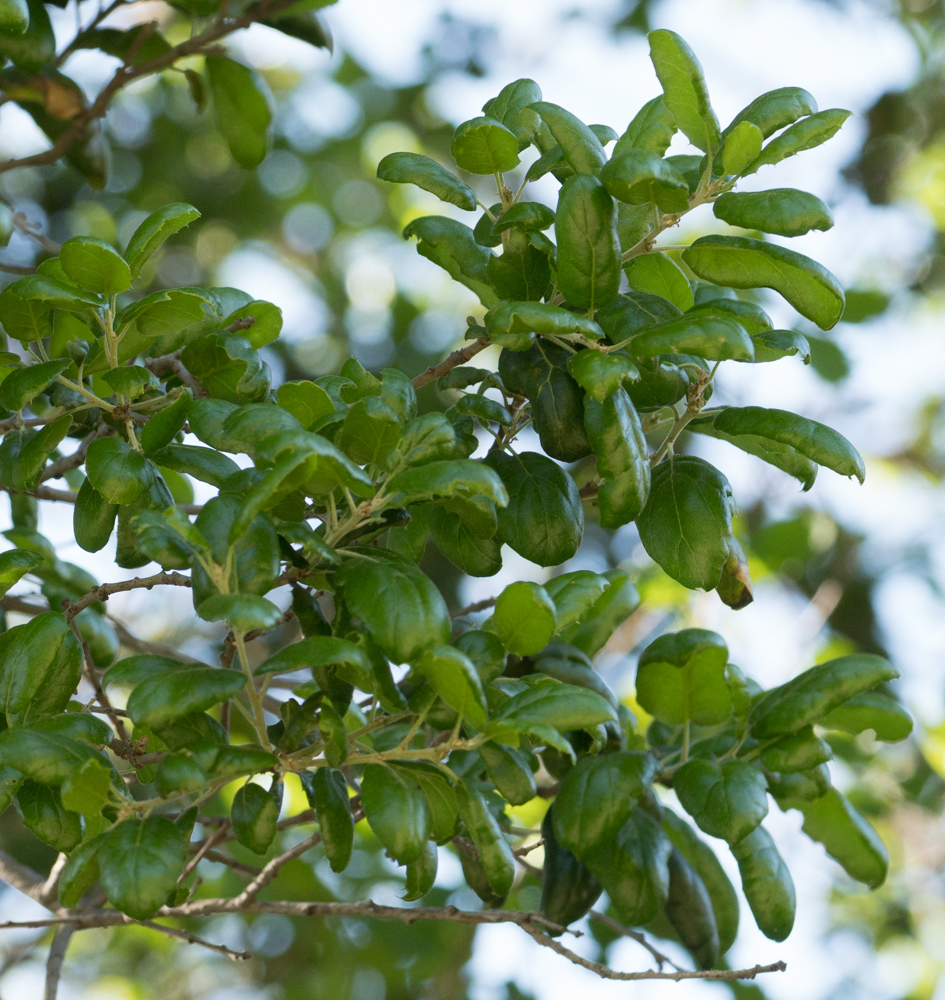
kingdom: Plantae
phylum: Tracheophyta
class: Magnoliopsida
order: Fagales
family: Fagaceae
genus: Quercus
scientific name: Quercus agrifolia
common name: California live oak
